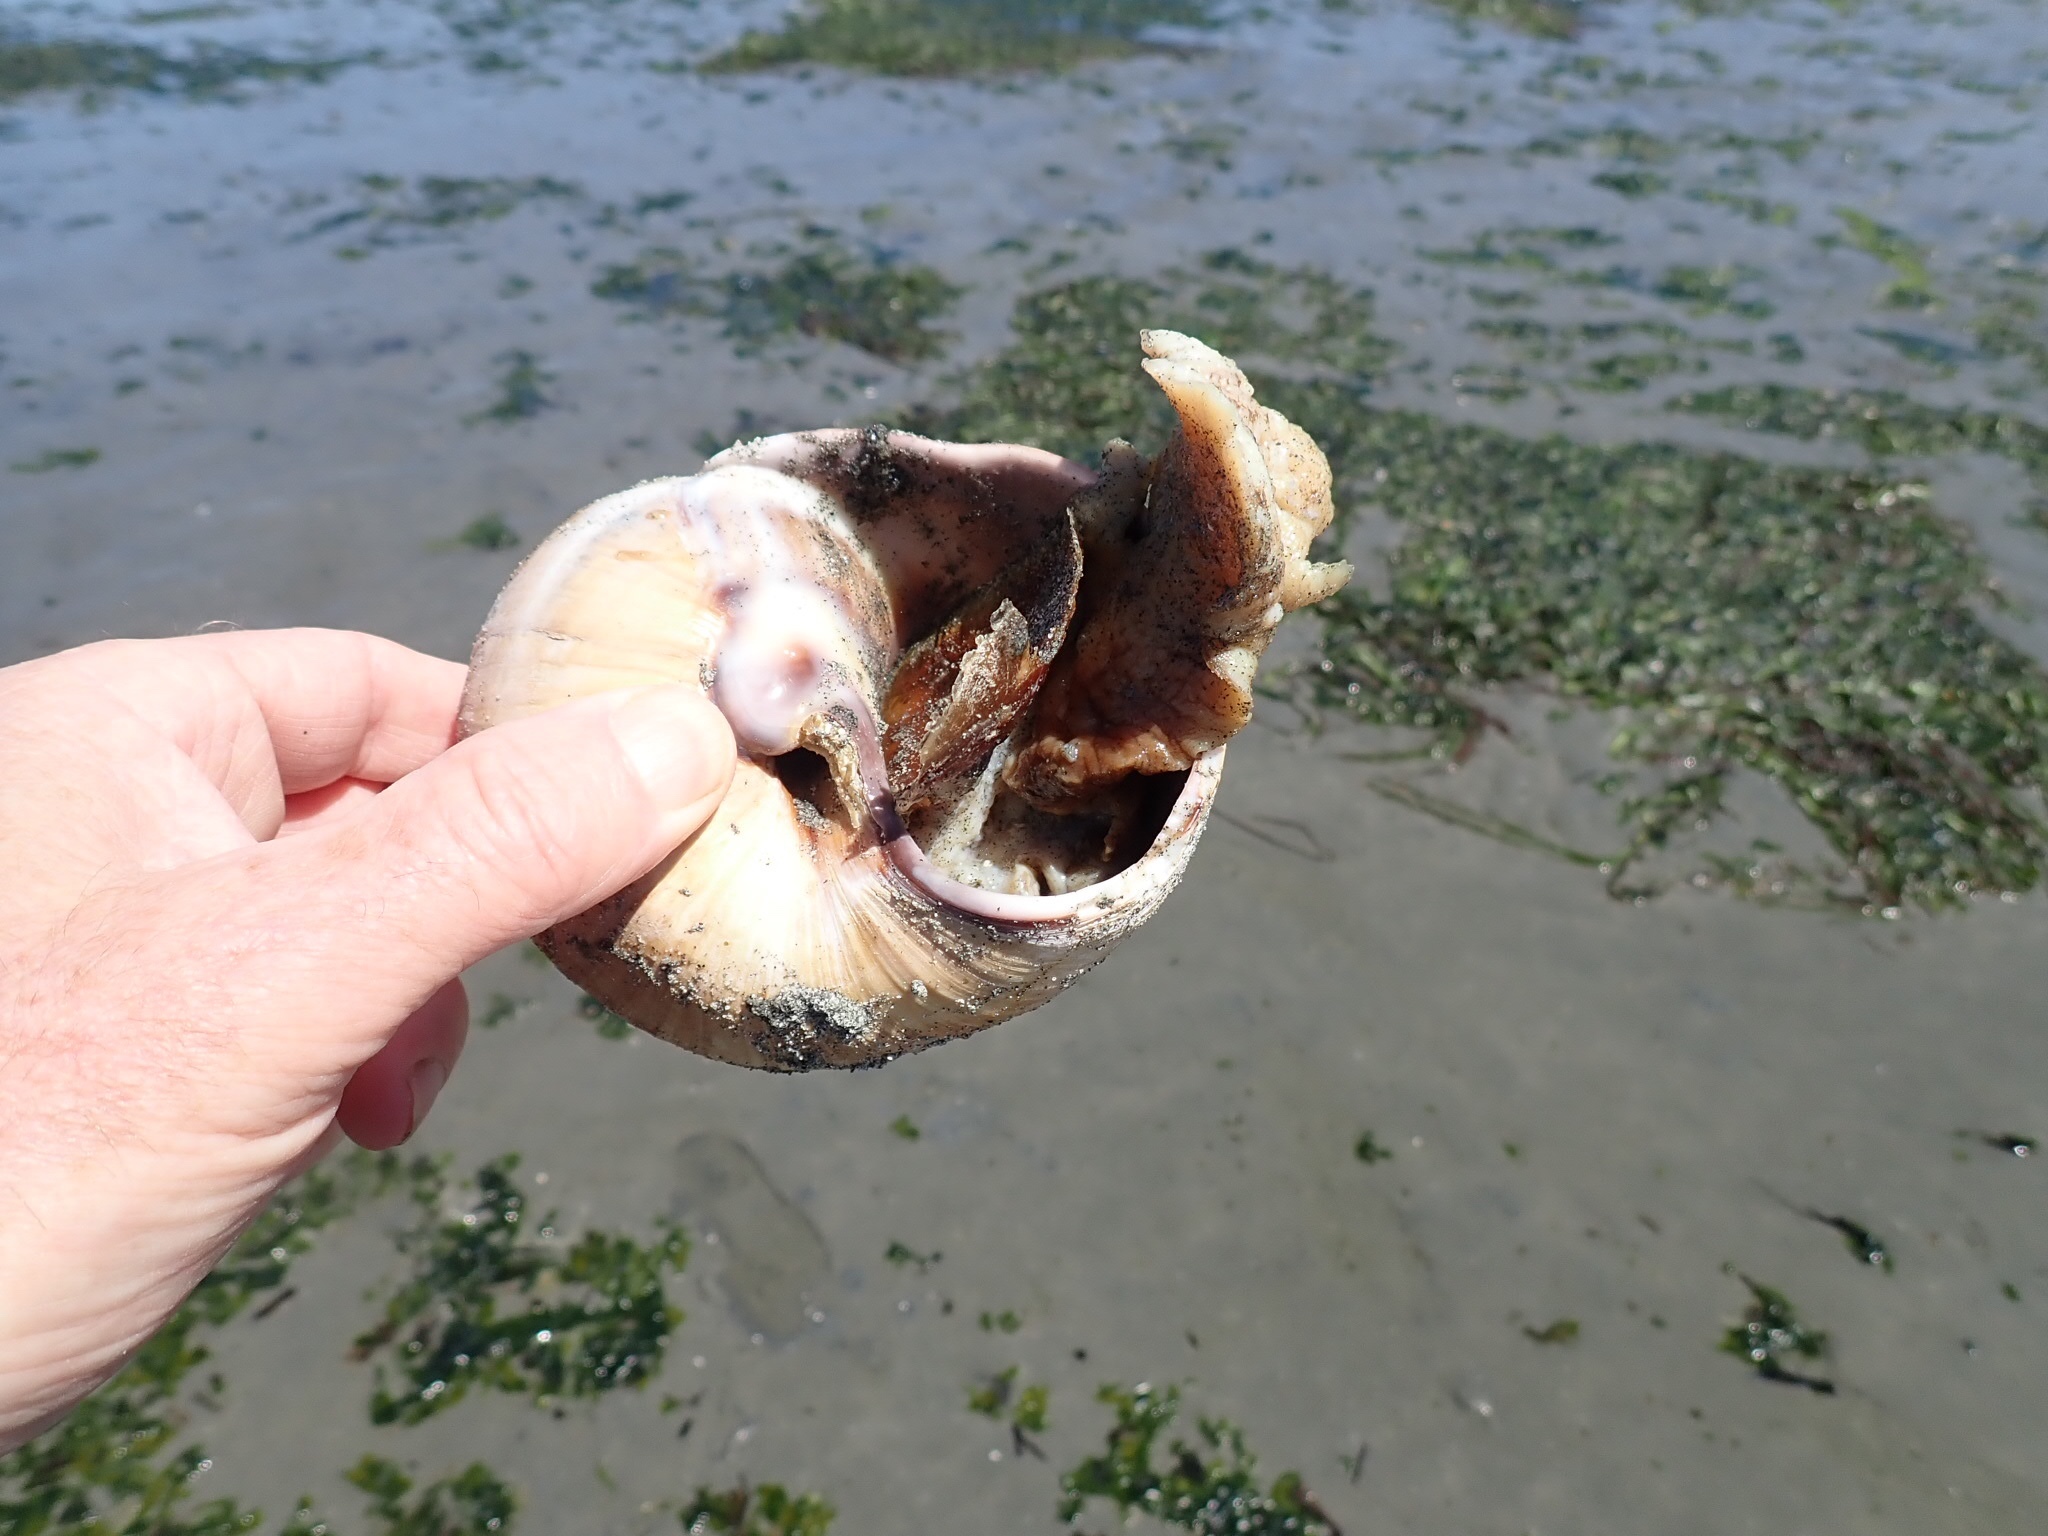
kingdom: Animalia
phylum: Mollusca
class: Gastropoda
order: Littorinimorpha
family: Naticidae
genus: Neverita
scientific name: Neverita lewisii
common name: Lewis' moonsnail
